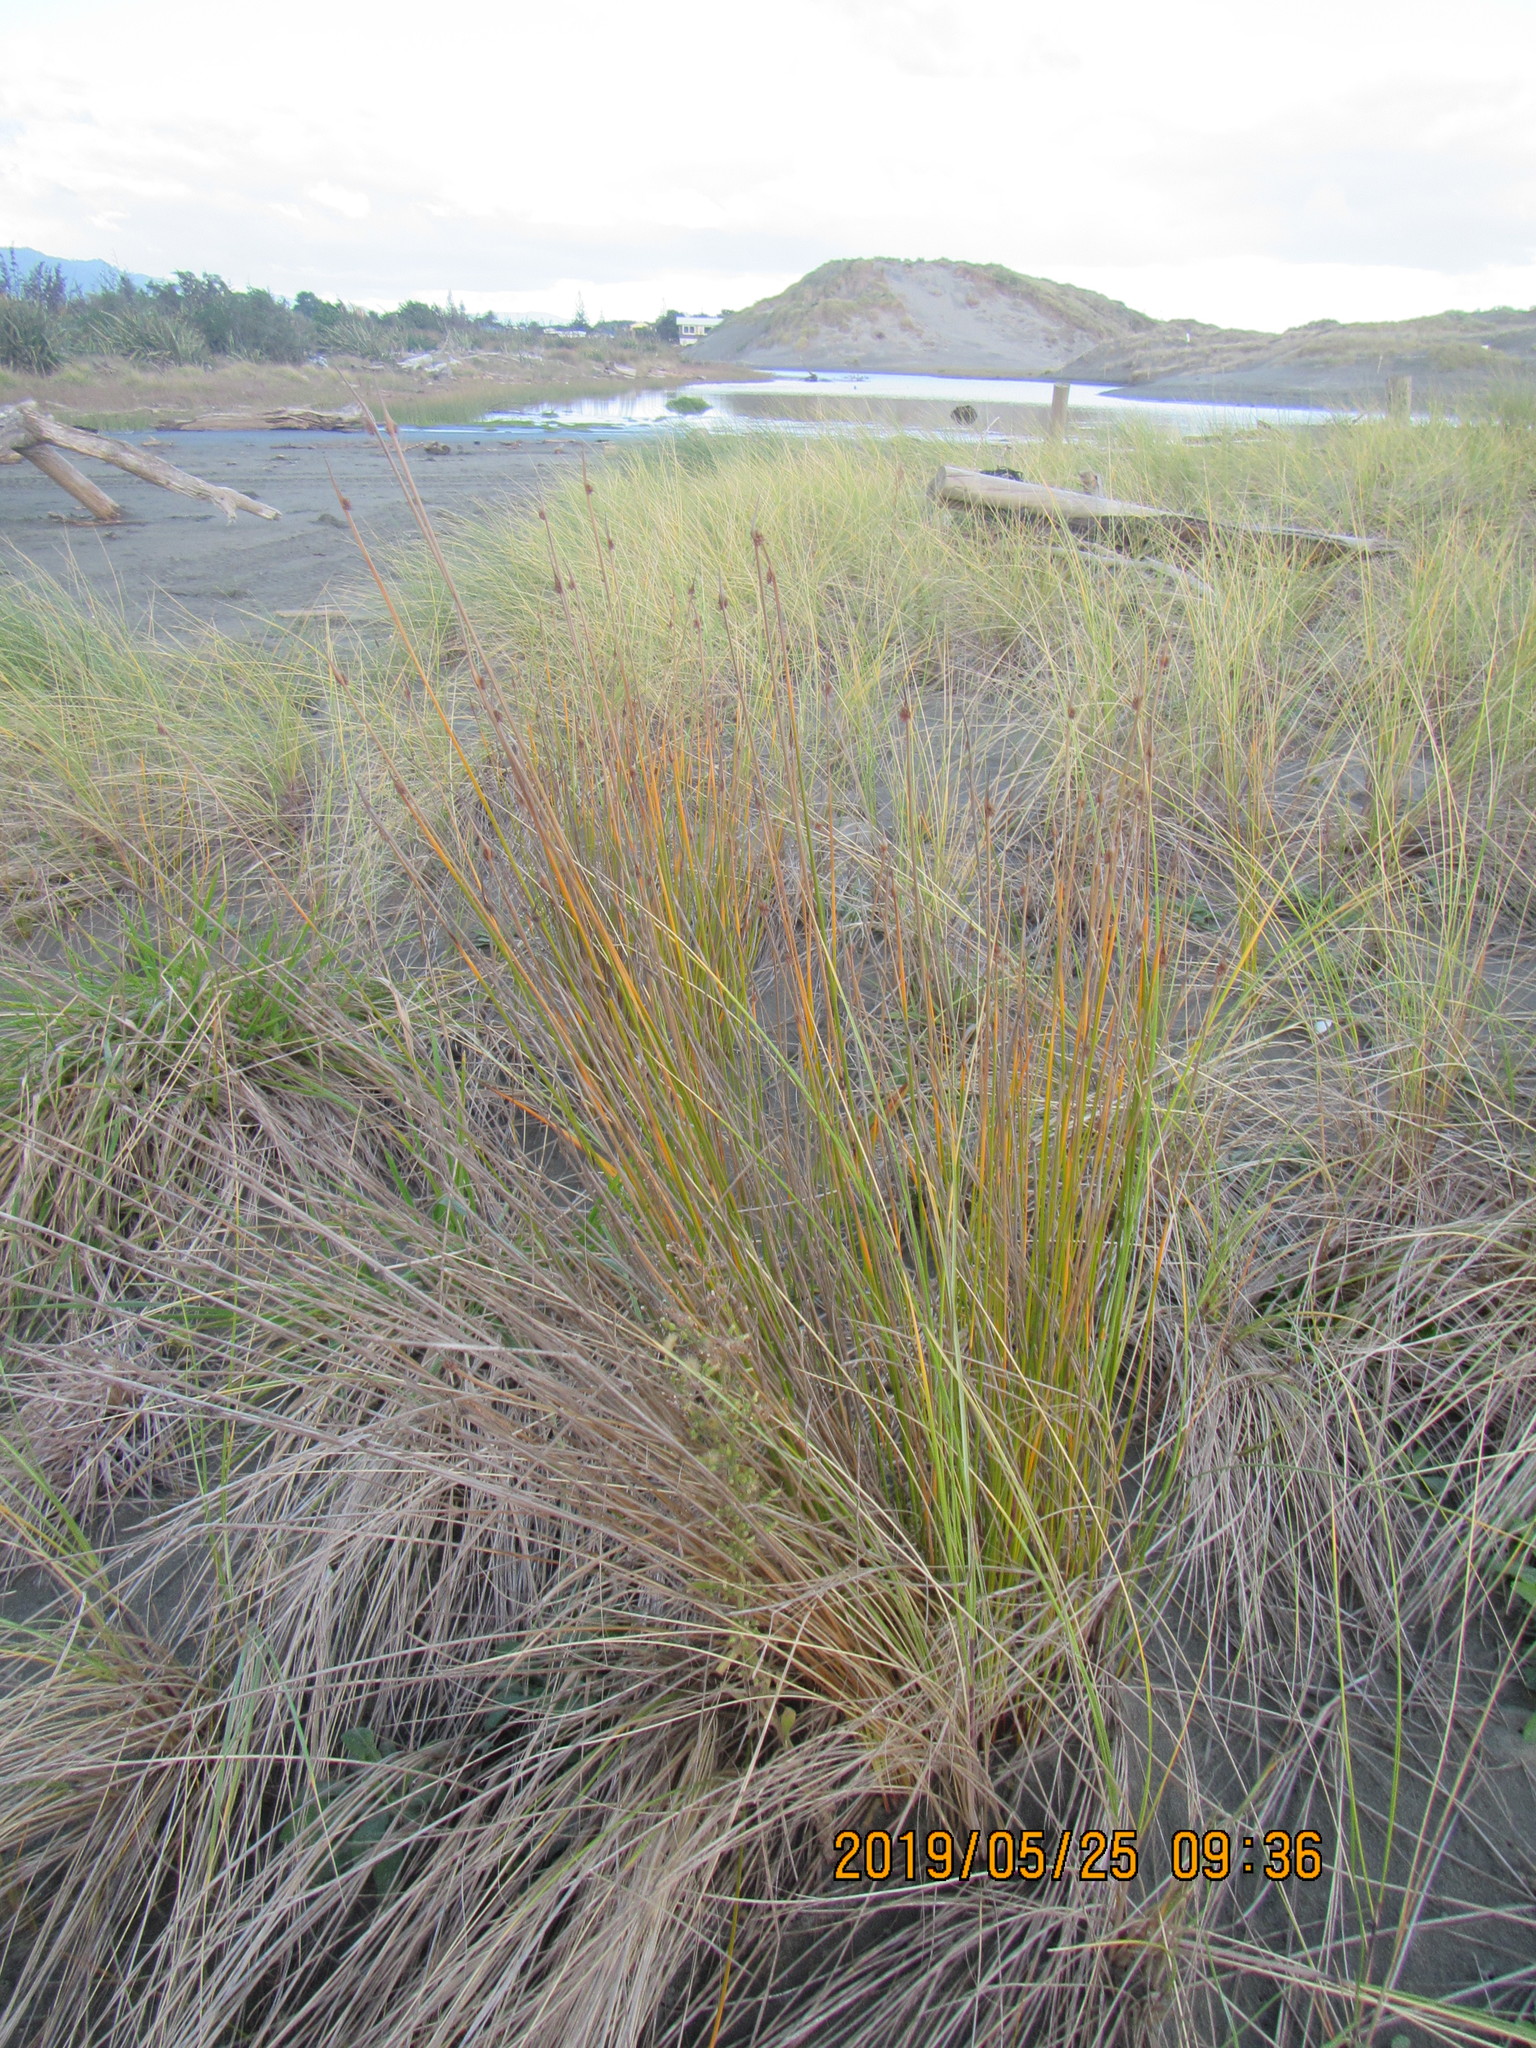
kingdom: Plantae
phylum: Tracheophyta
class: Liliopsida
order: Poales
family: Cyperaceae
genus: Ficinia
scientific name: Ficinia nodosa
